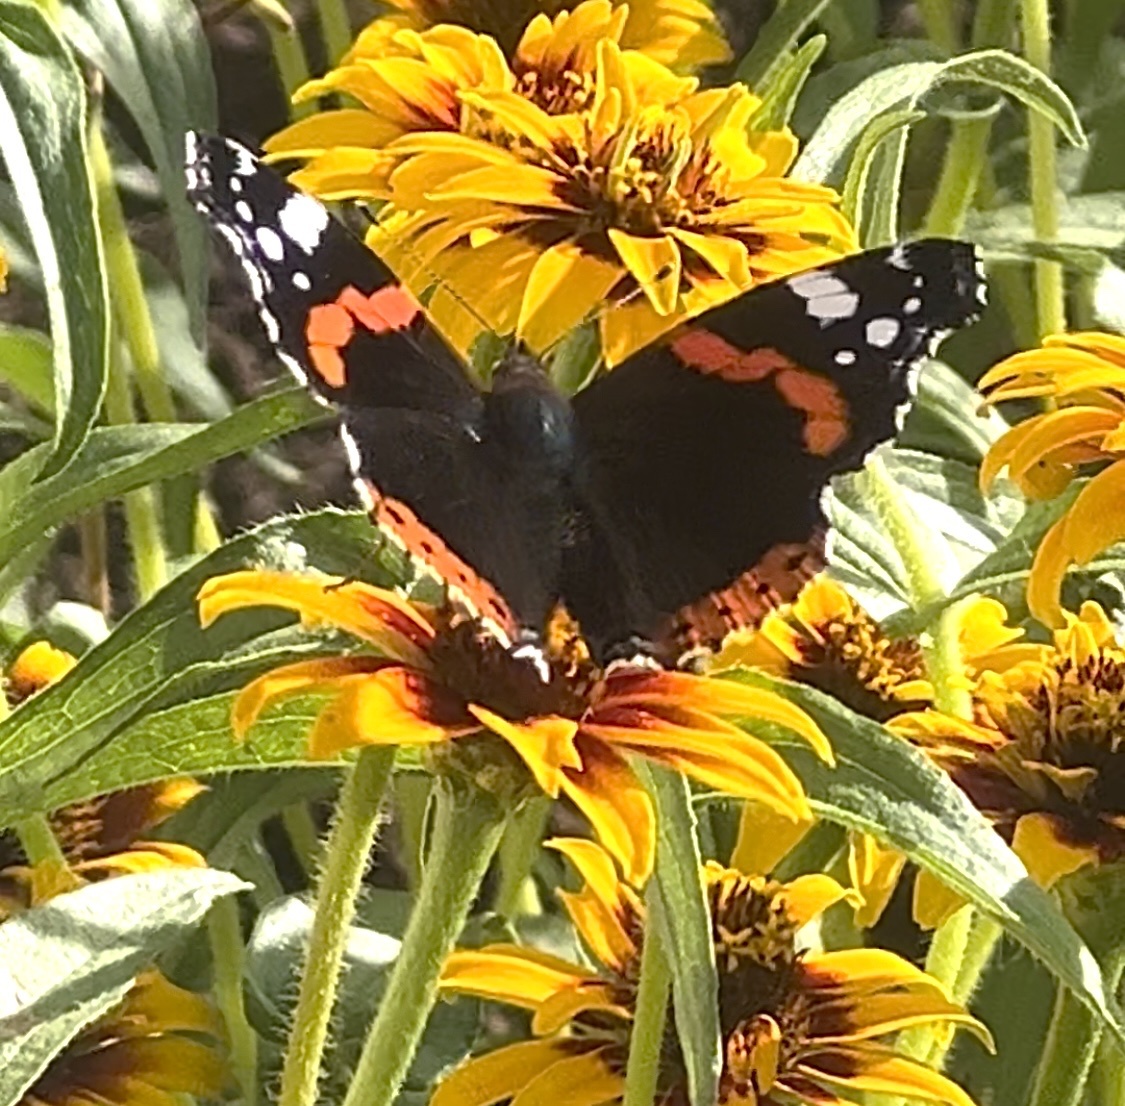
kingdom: Animalia
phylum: Arthropoda
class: Insecta
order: Lepidoptera
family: Nymphalidae
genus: Vanessa
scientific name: Vanessa atalanta
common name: Red admiral
